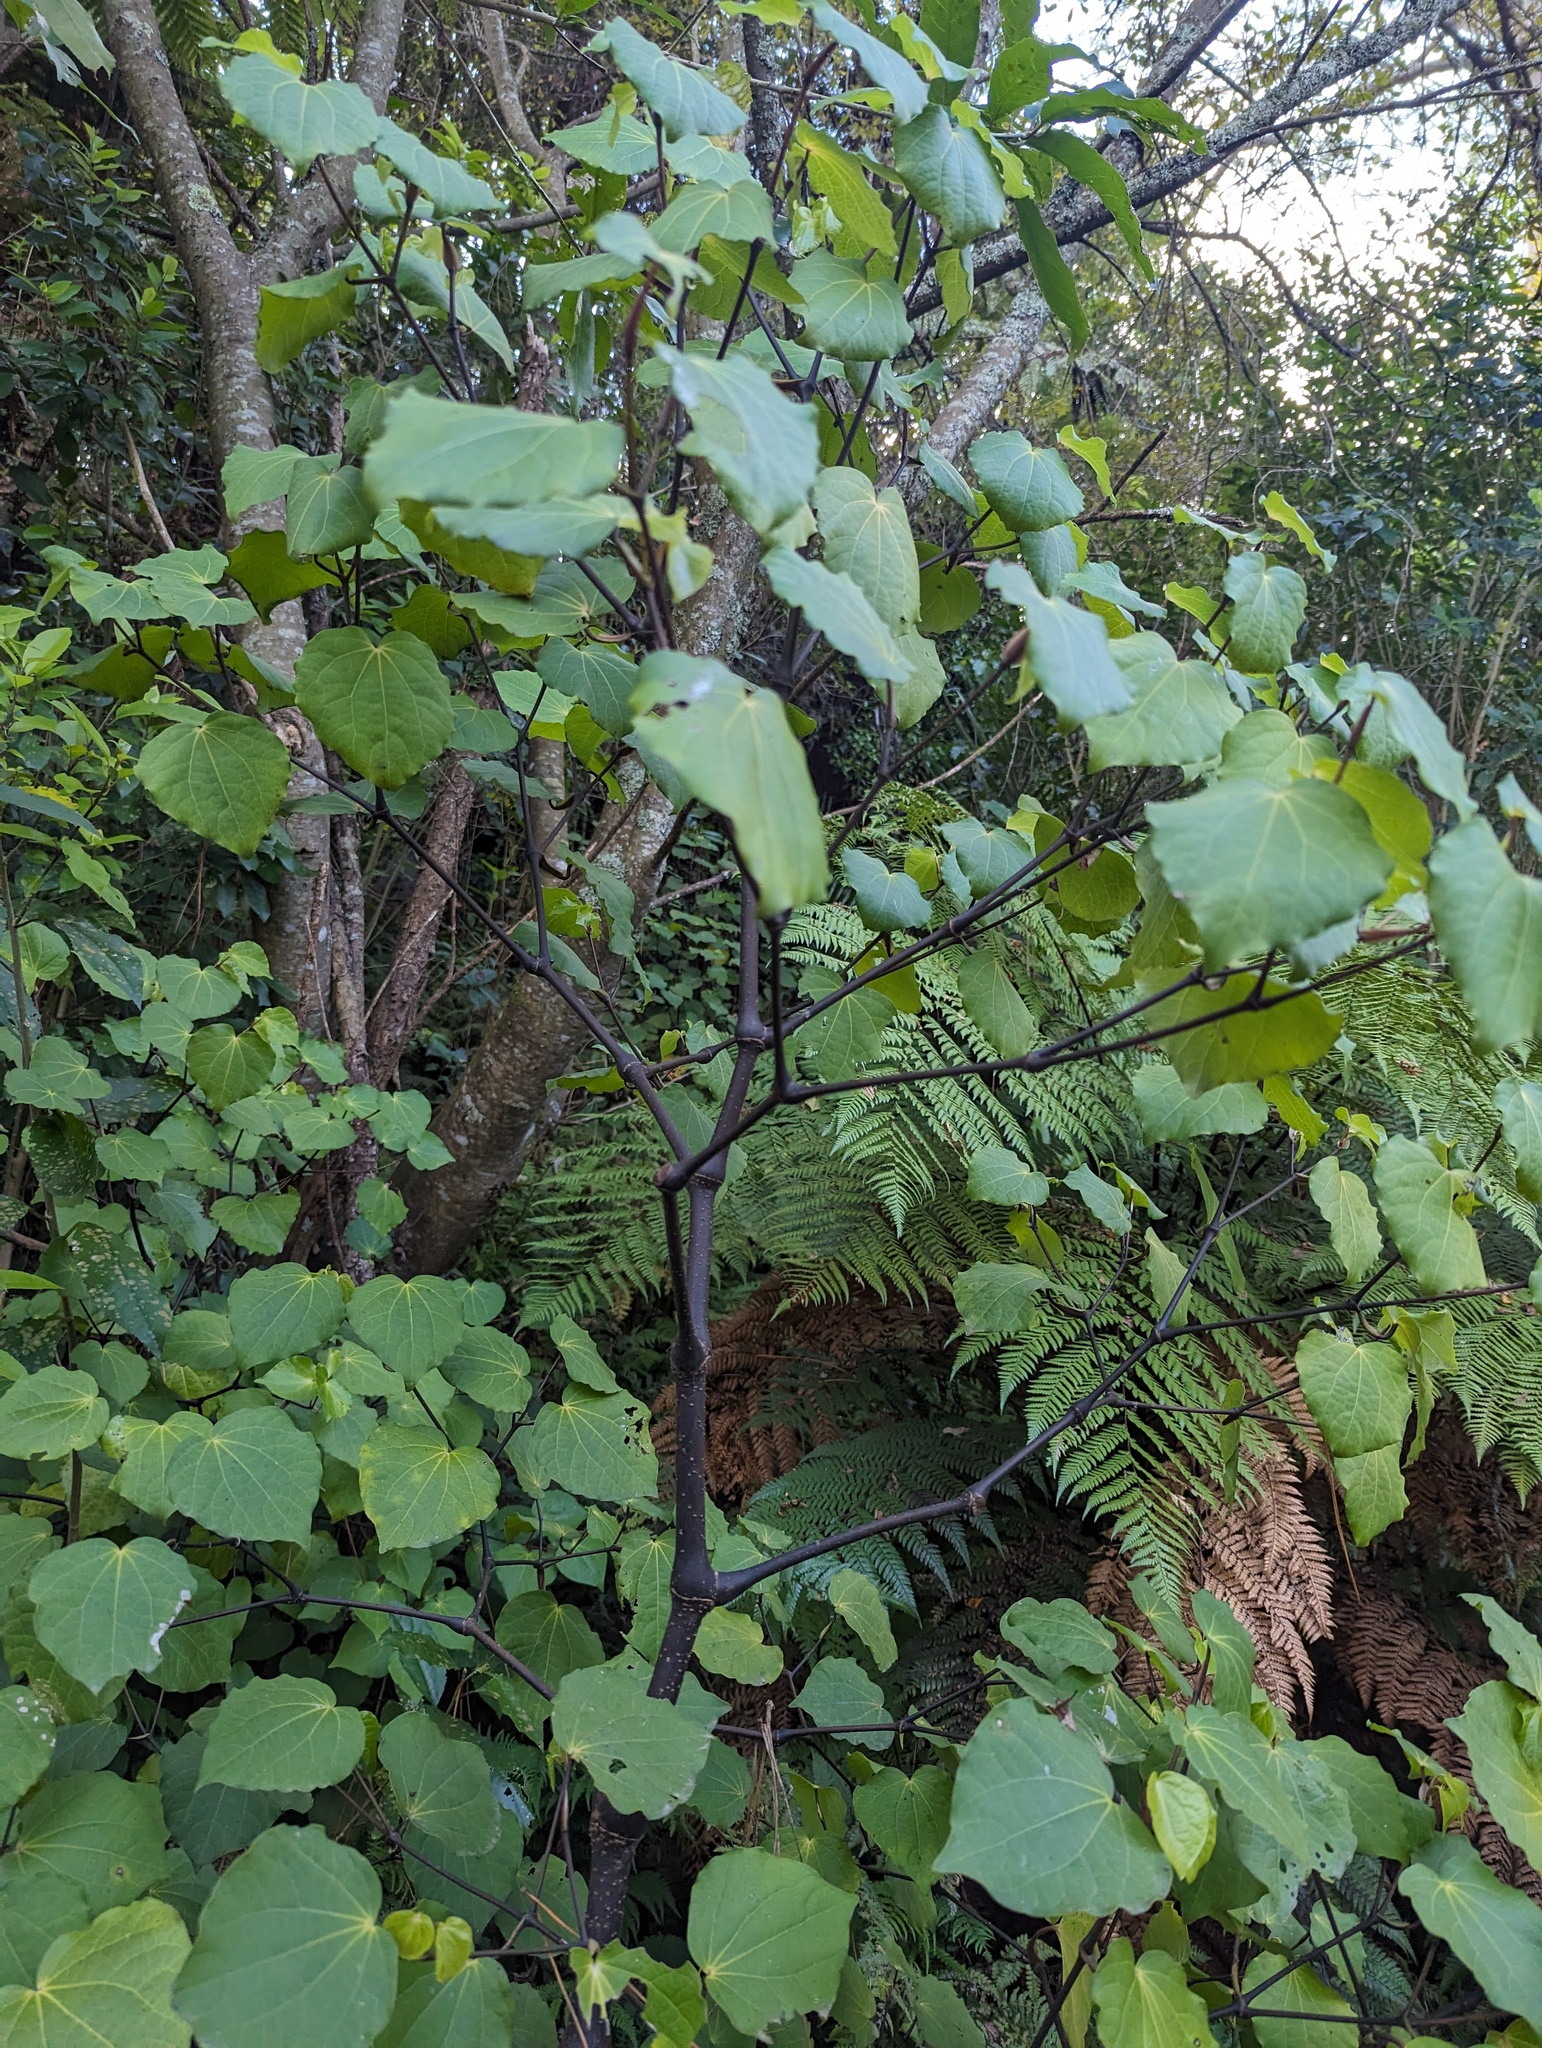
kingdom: Plantae
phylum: Tracheophyta
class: Magnoliopsida
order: Piperales
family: Piperaceae
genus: Macropiper
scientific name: Macropiper excelsum
